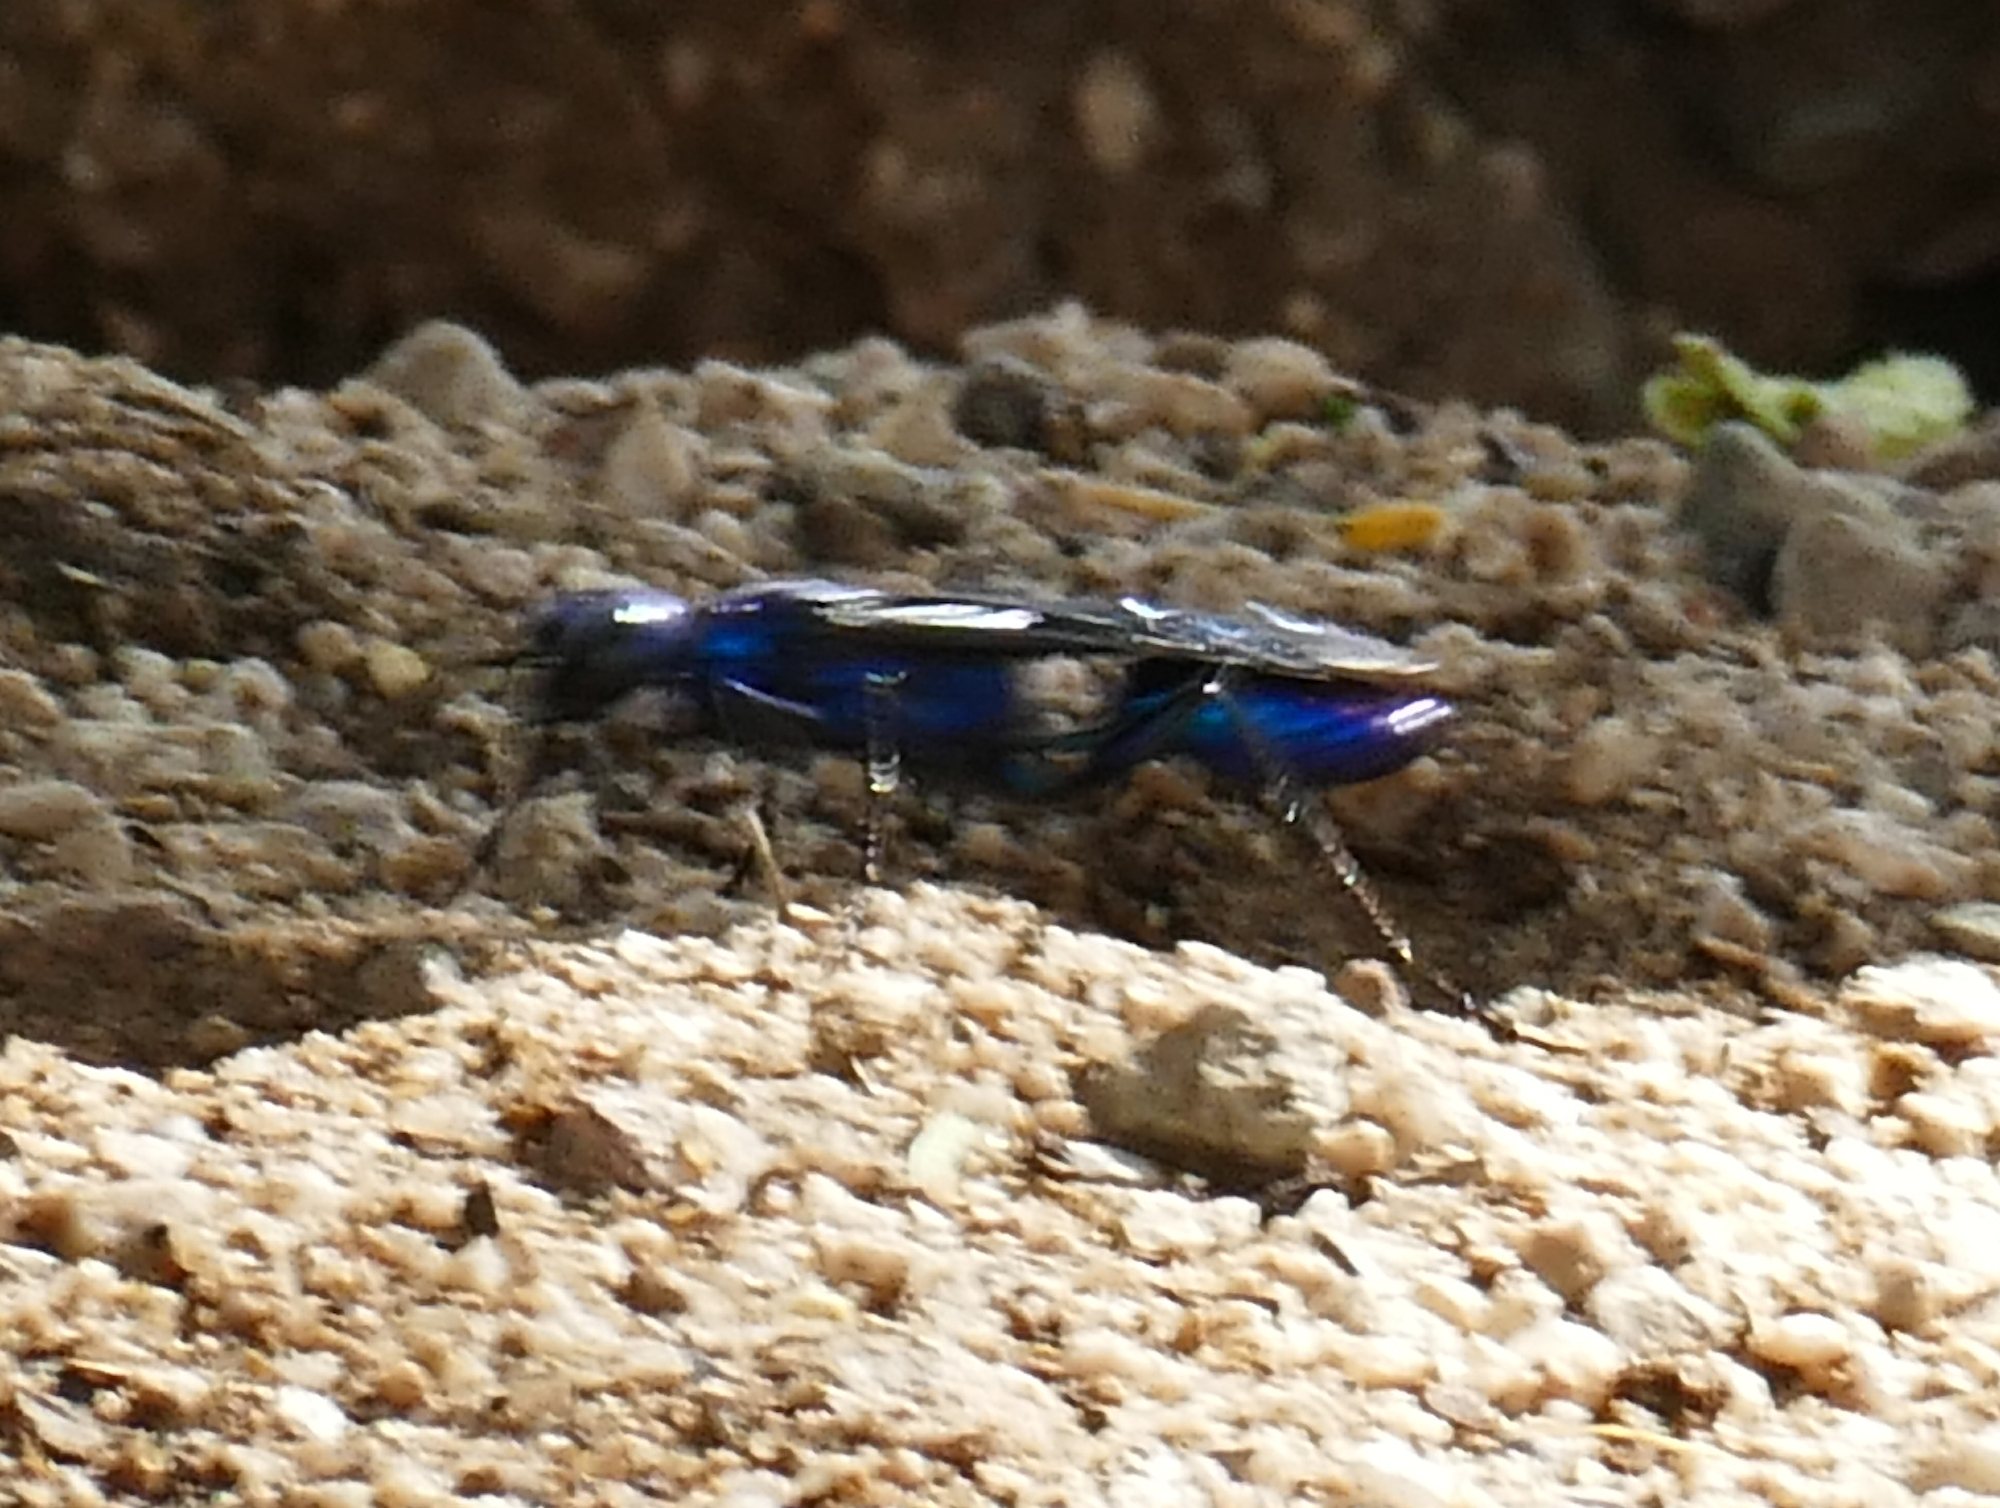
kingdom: Animalia
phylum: Arthropoda
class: Insecta
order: Hymenoptera
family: Sphecidae
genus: Chlorion
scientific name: Chlorion aerarium
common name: Steel-blue cricket hunter
